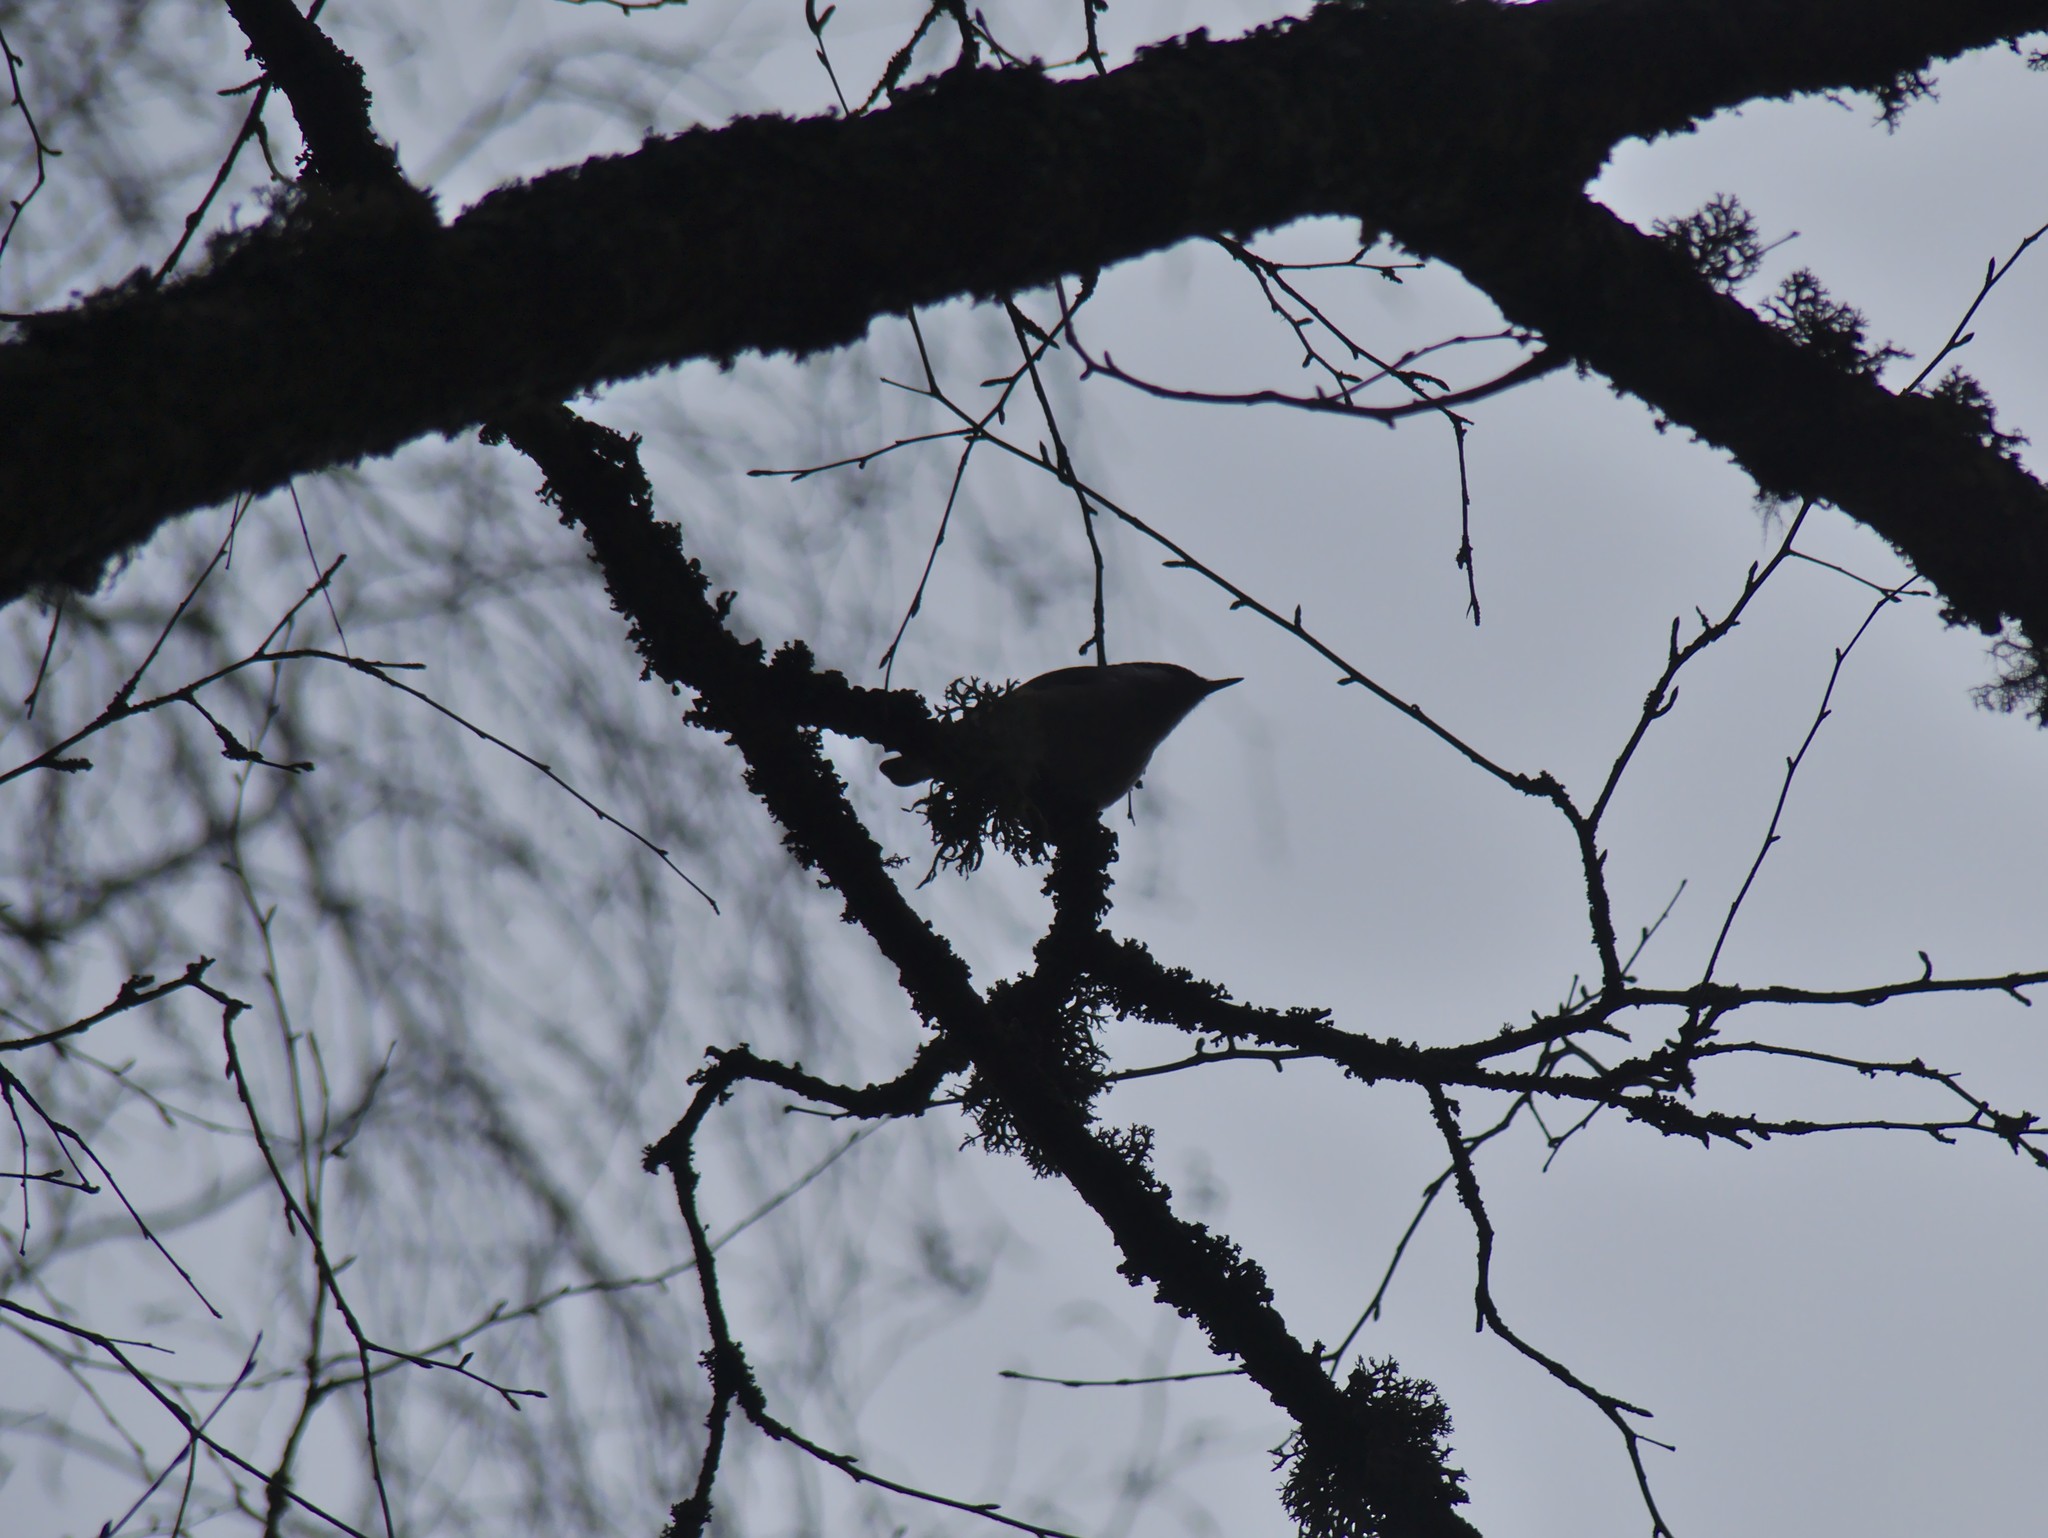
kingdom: Animalia
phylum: Chordata
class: Aves
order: Passeriformes
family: Sittidae
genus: Sitta
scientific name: Sitta europaea
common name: Eurasian nuthatch
